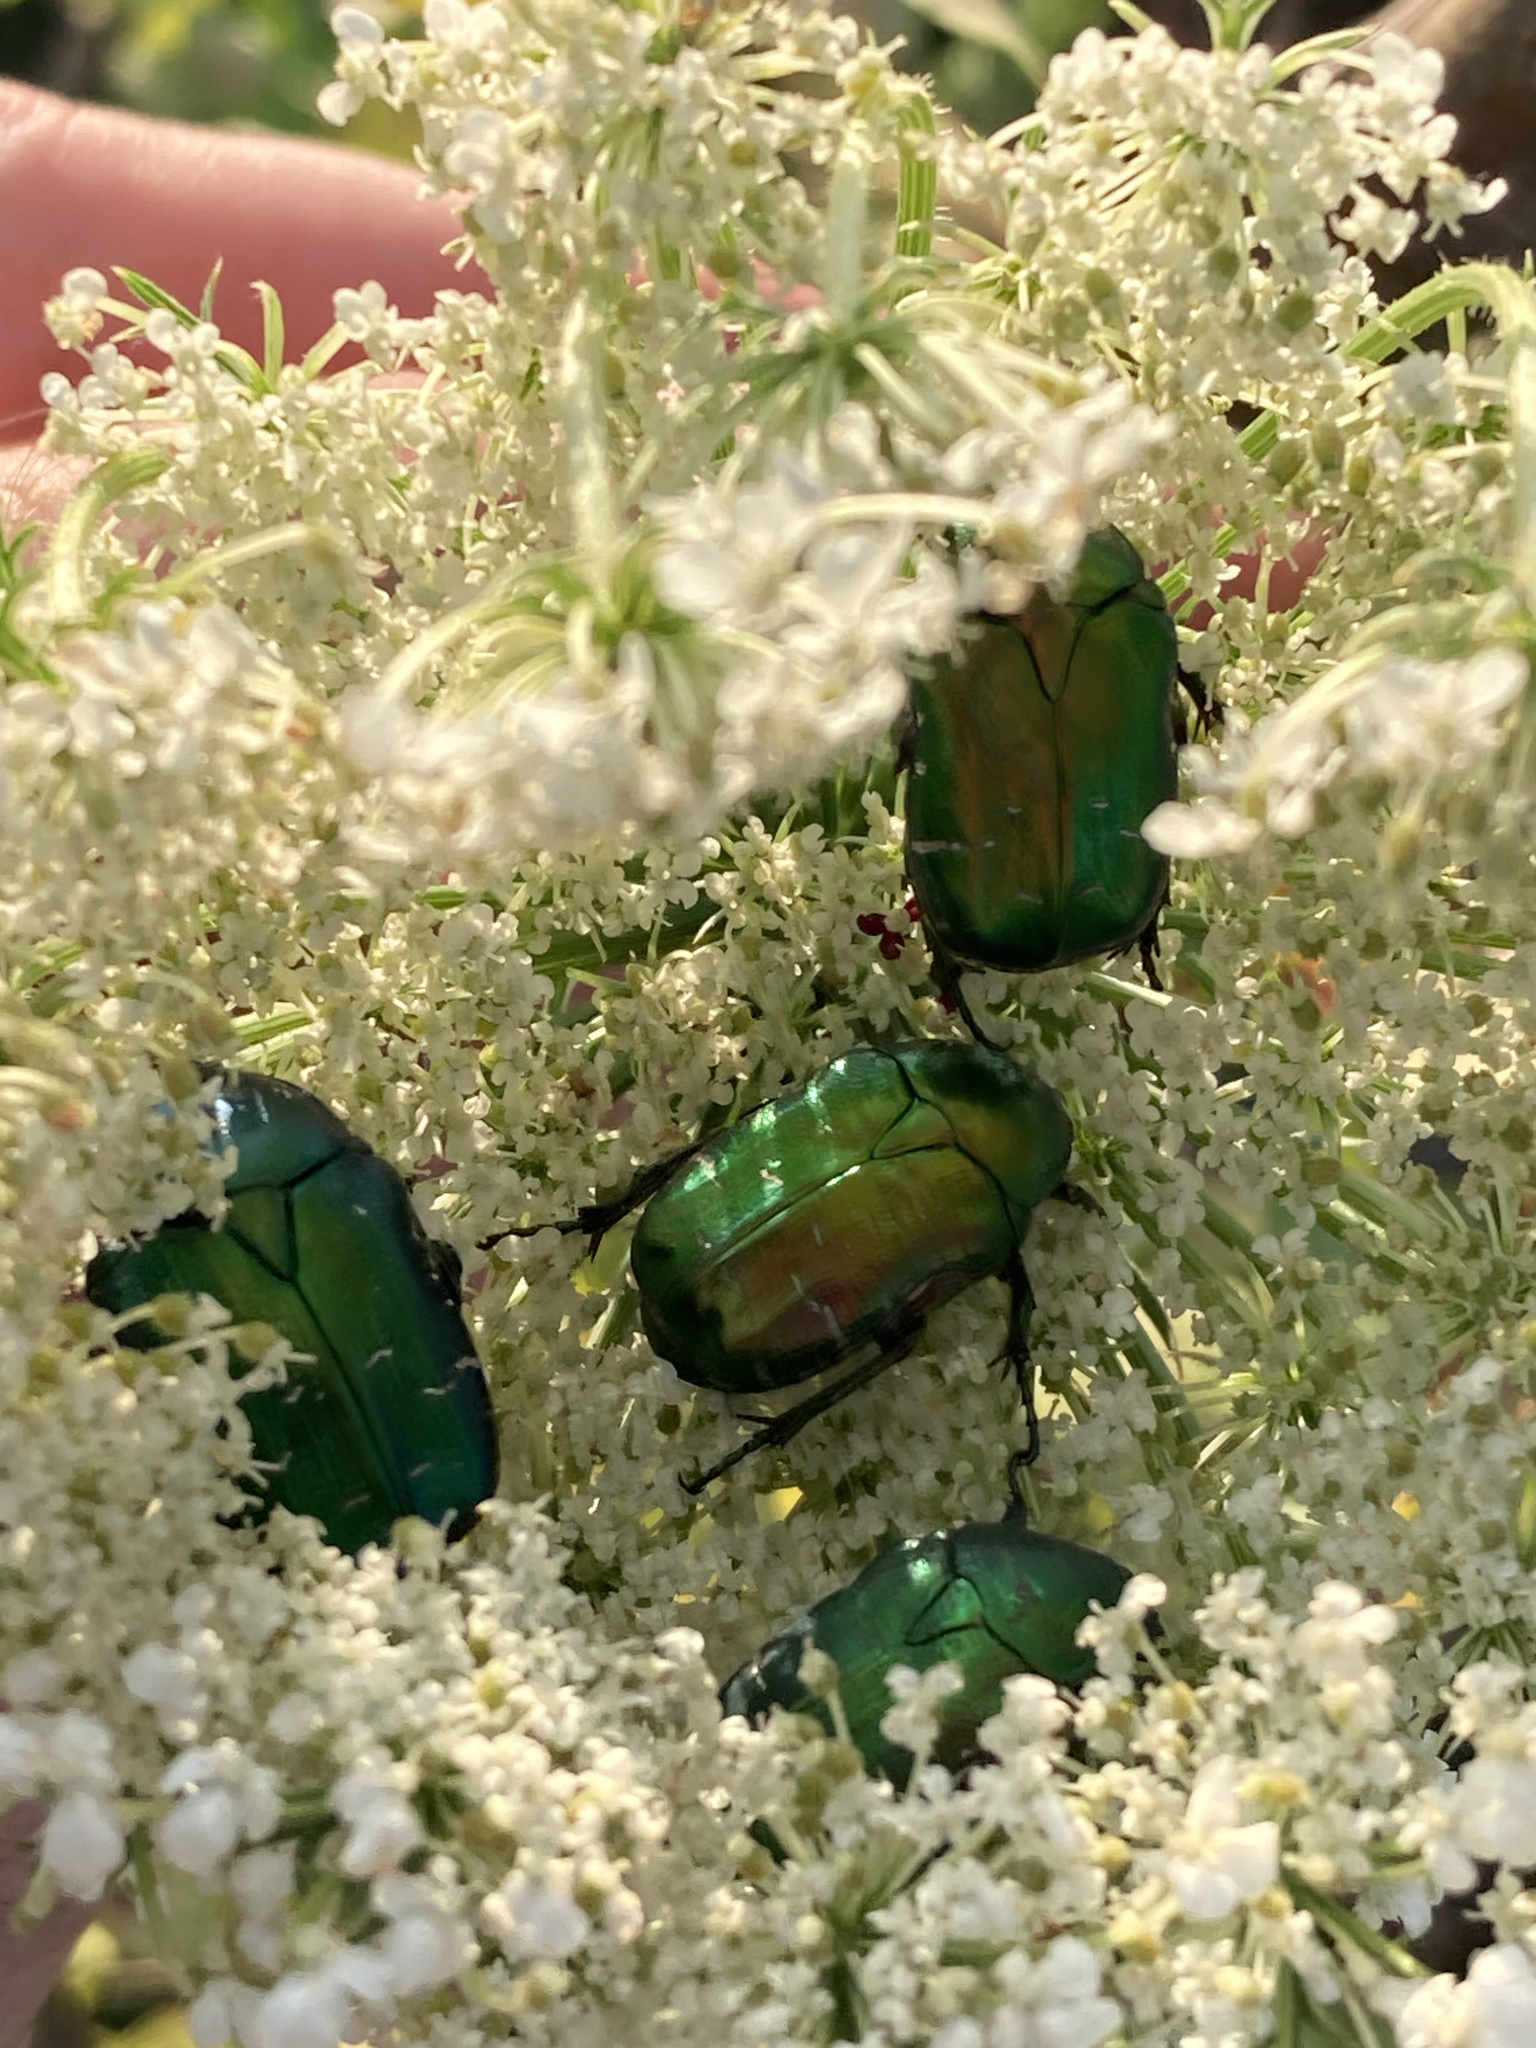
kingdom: Animalia
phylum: Arthropoda
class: Insecta
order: Coleoptera
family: Scarabaeidae
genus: Cetonia
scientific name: Cetonia aurata
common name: Rose chafer
